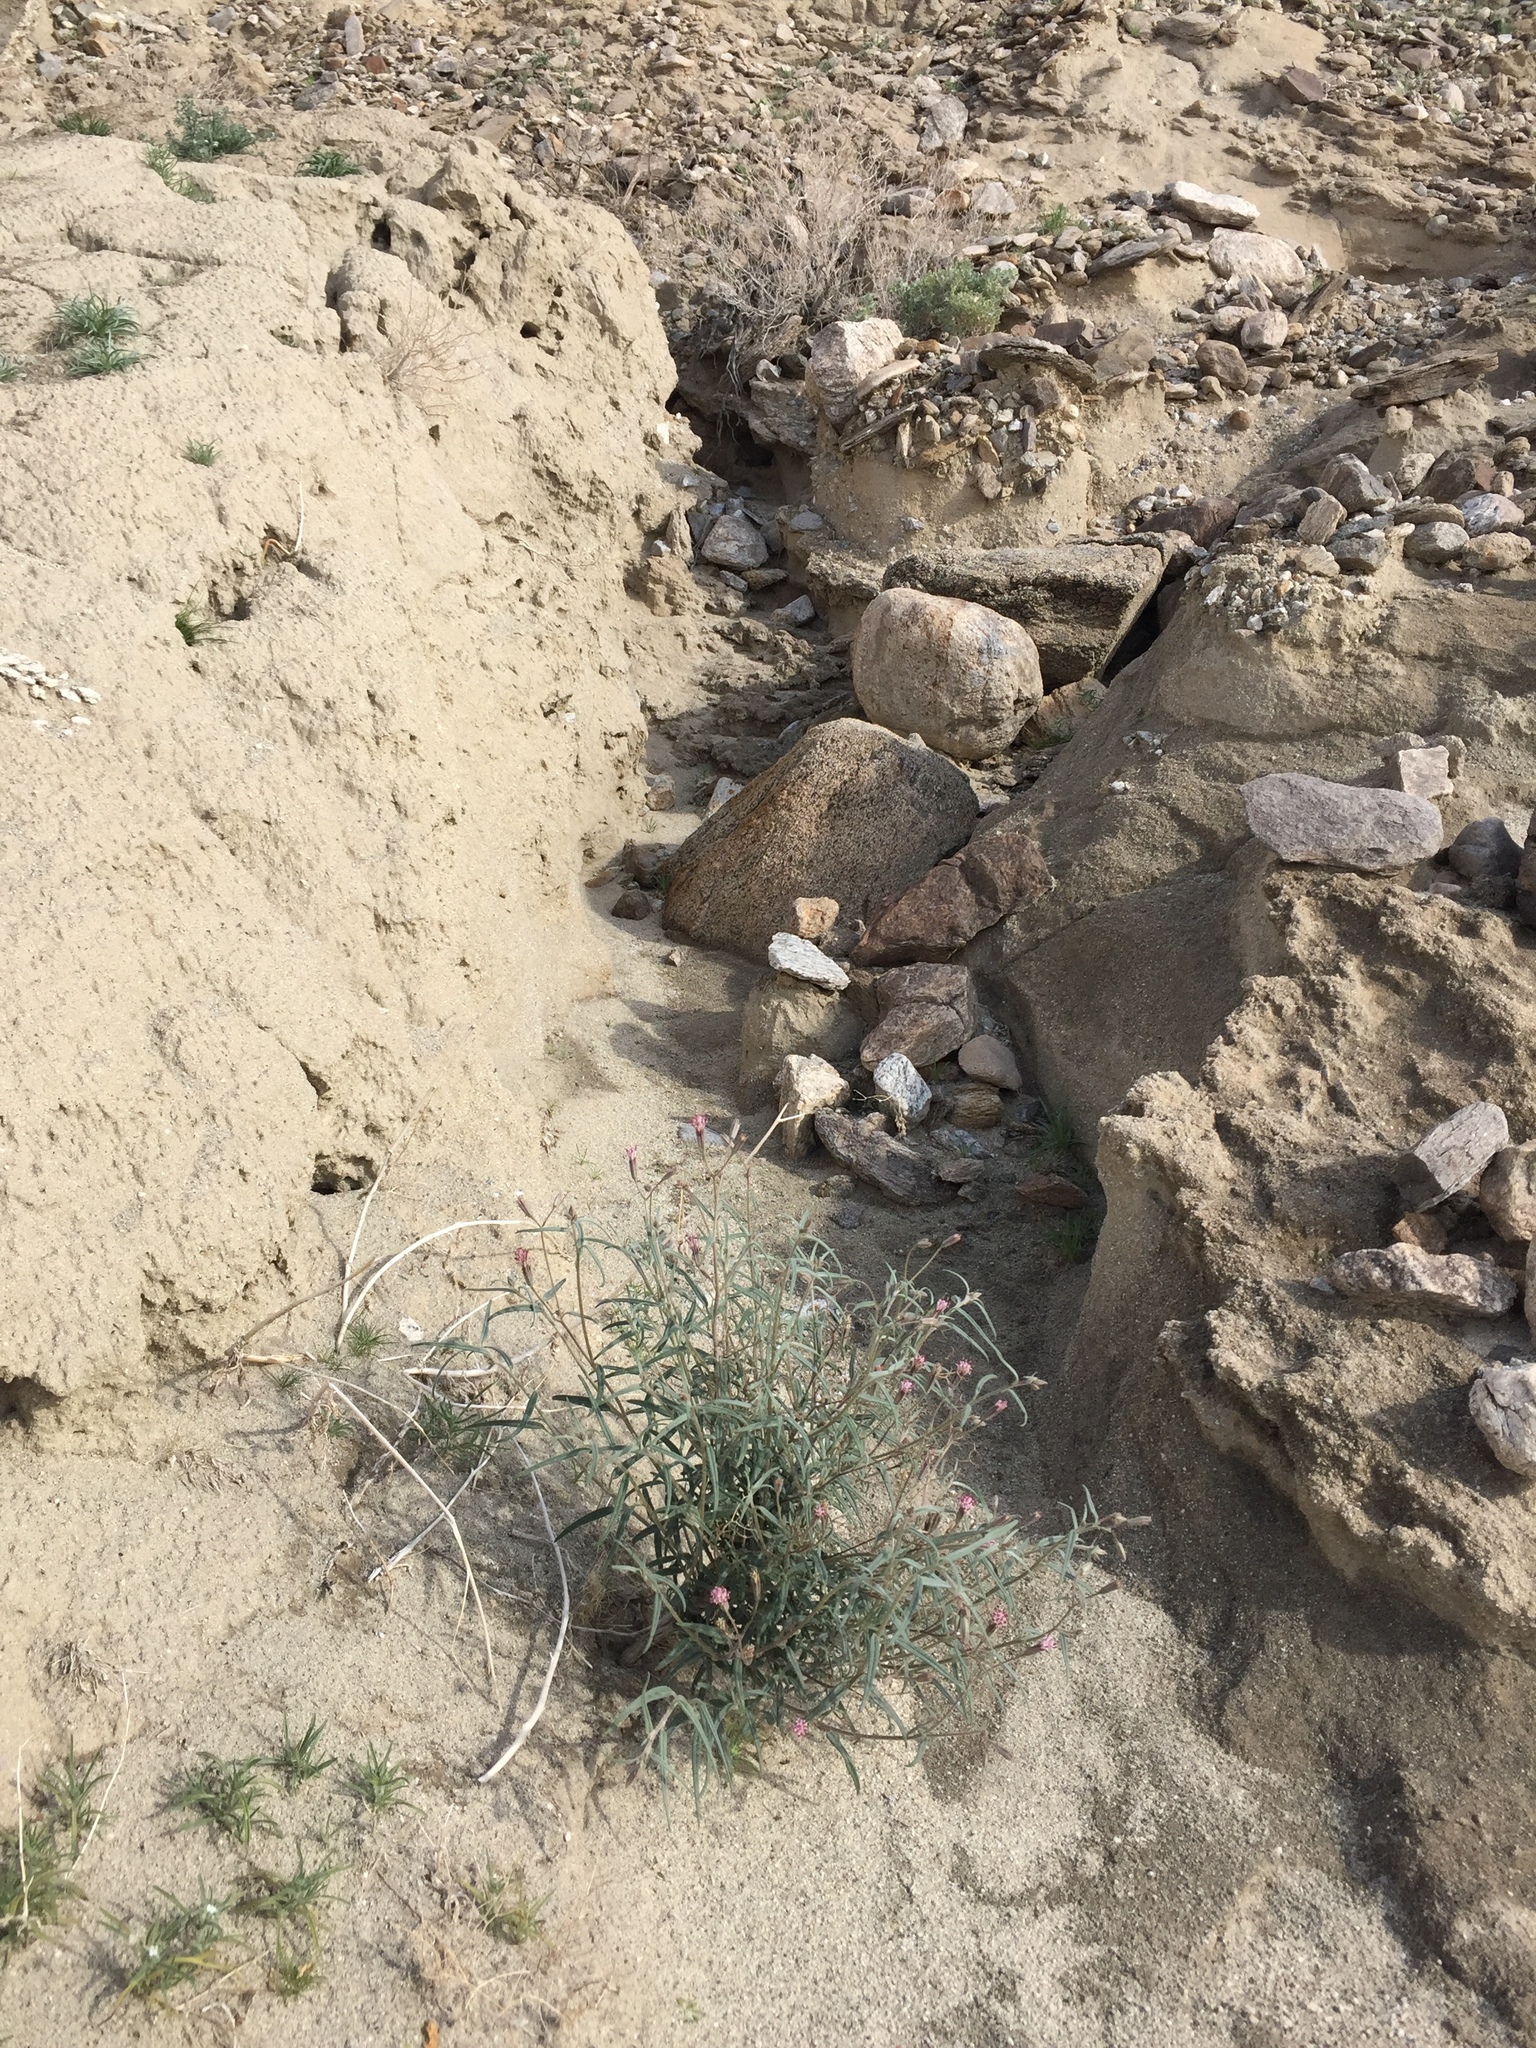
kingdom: Plantae
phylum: Tracheophyta
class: Magnoliopsida
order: Asterales
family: Asteraceae
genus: Palafoxia
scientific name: Palafoxia arida
